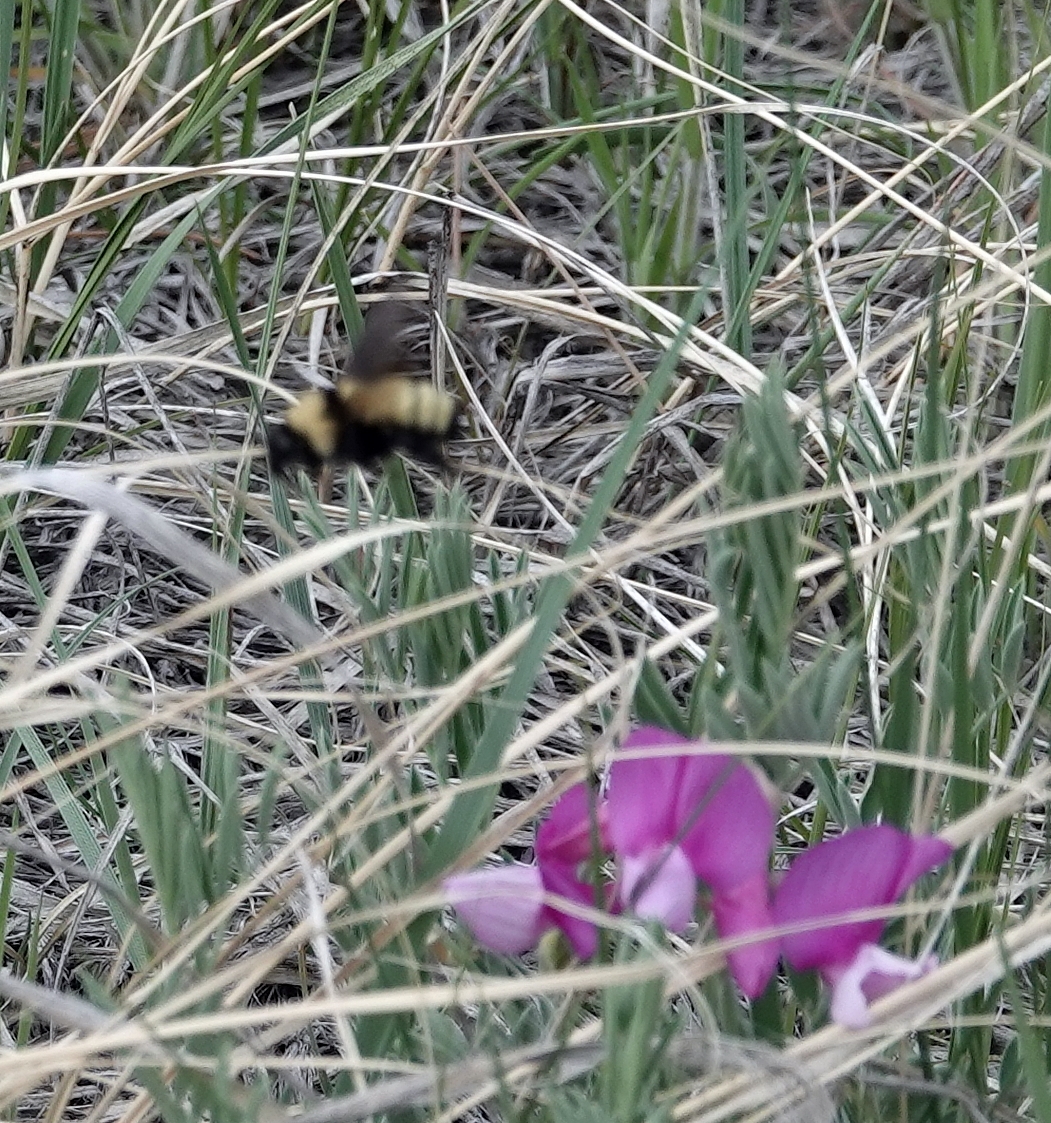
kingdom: Animalia
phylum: Arthropoda
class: Insecta
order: Hymenoptera
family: Apidae
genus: Bombus
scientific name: Bombus fervidus
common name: Yellow bumble bee
